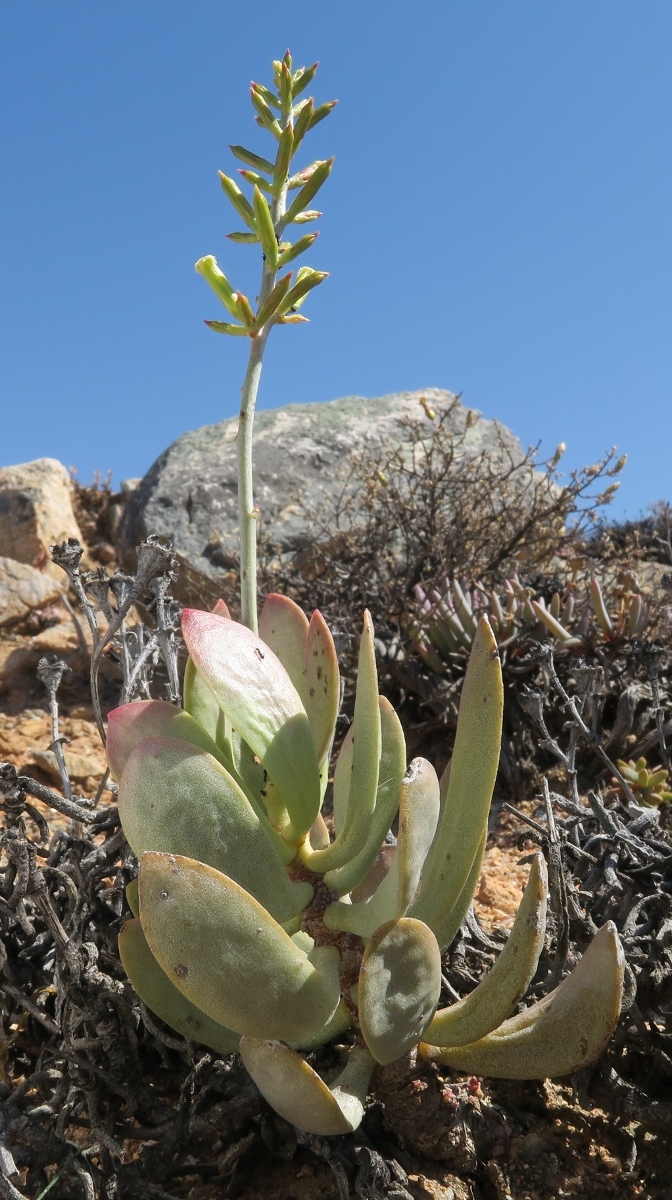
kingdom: Plantae
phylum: Tracheophyta
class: Magnoliopsida
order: Saxifragales
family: Crassulaceae
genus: Adromischus
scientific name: Adromischus alstonii
